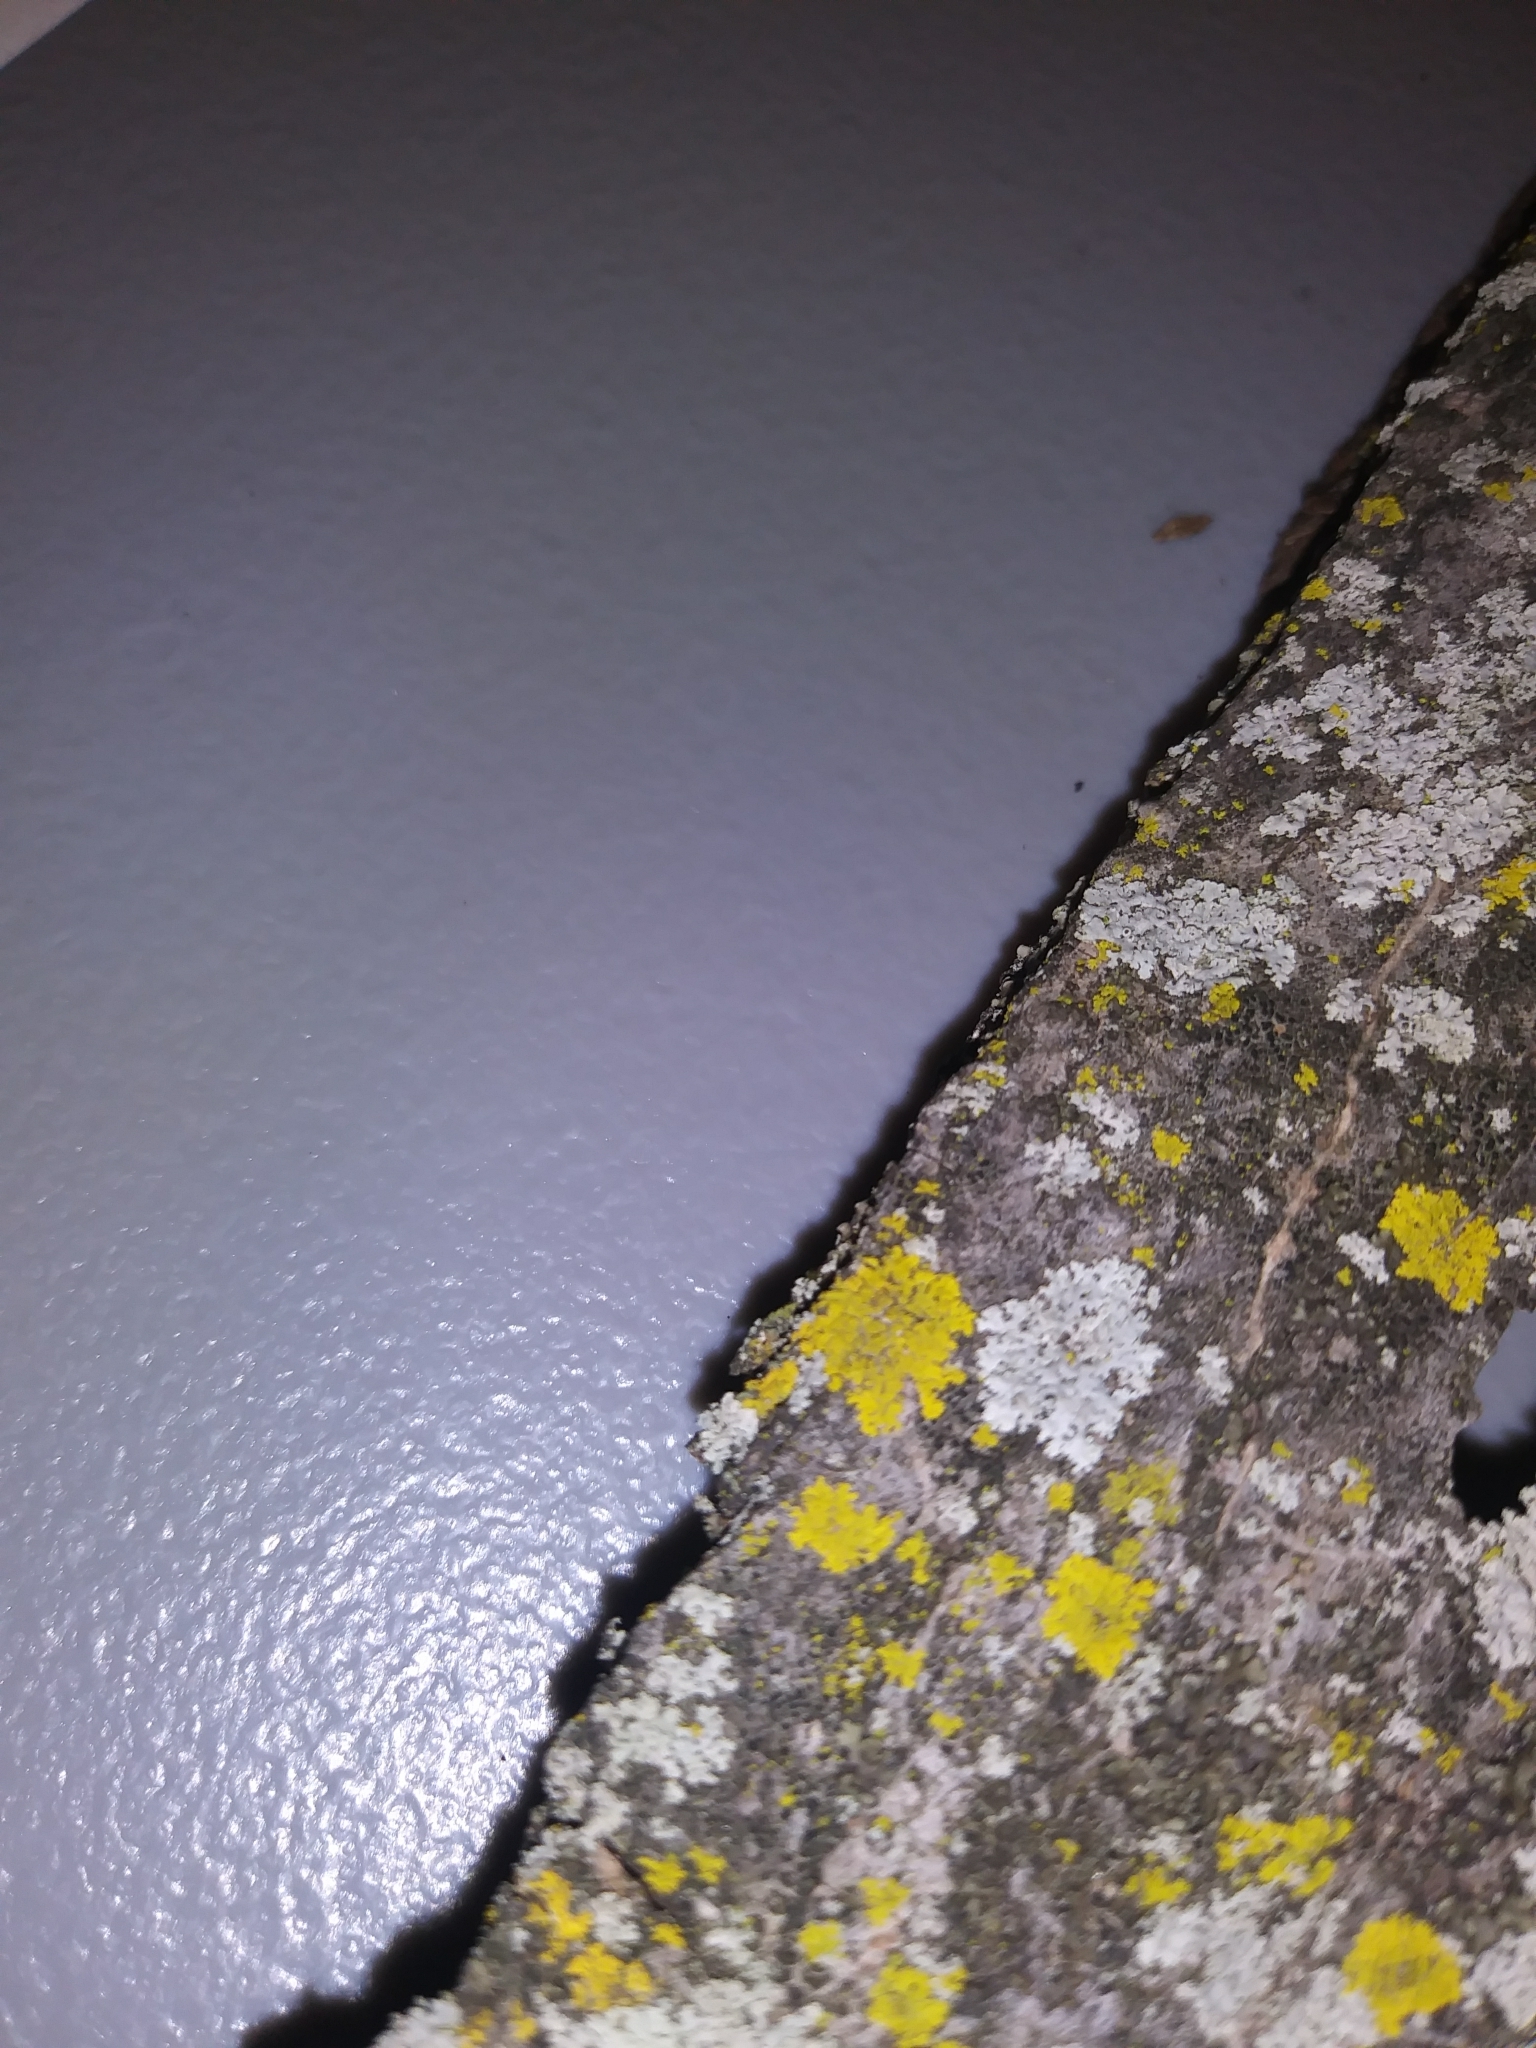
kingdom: Fungi
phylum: Ascomycota
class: Candelariomycetes
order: Candelariales
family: Candelariaceae
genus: Candelaria
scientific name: Candelaria concolor
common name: Candleflame lichen
